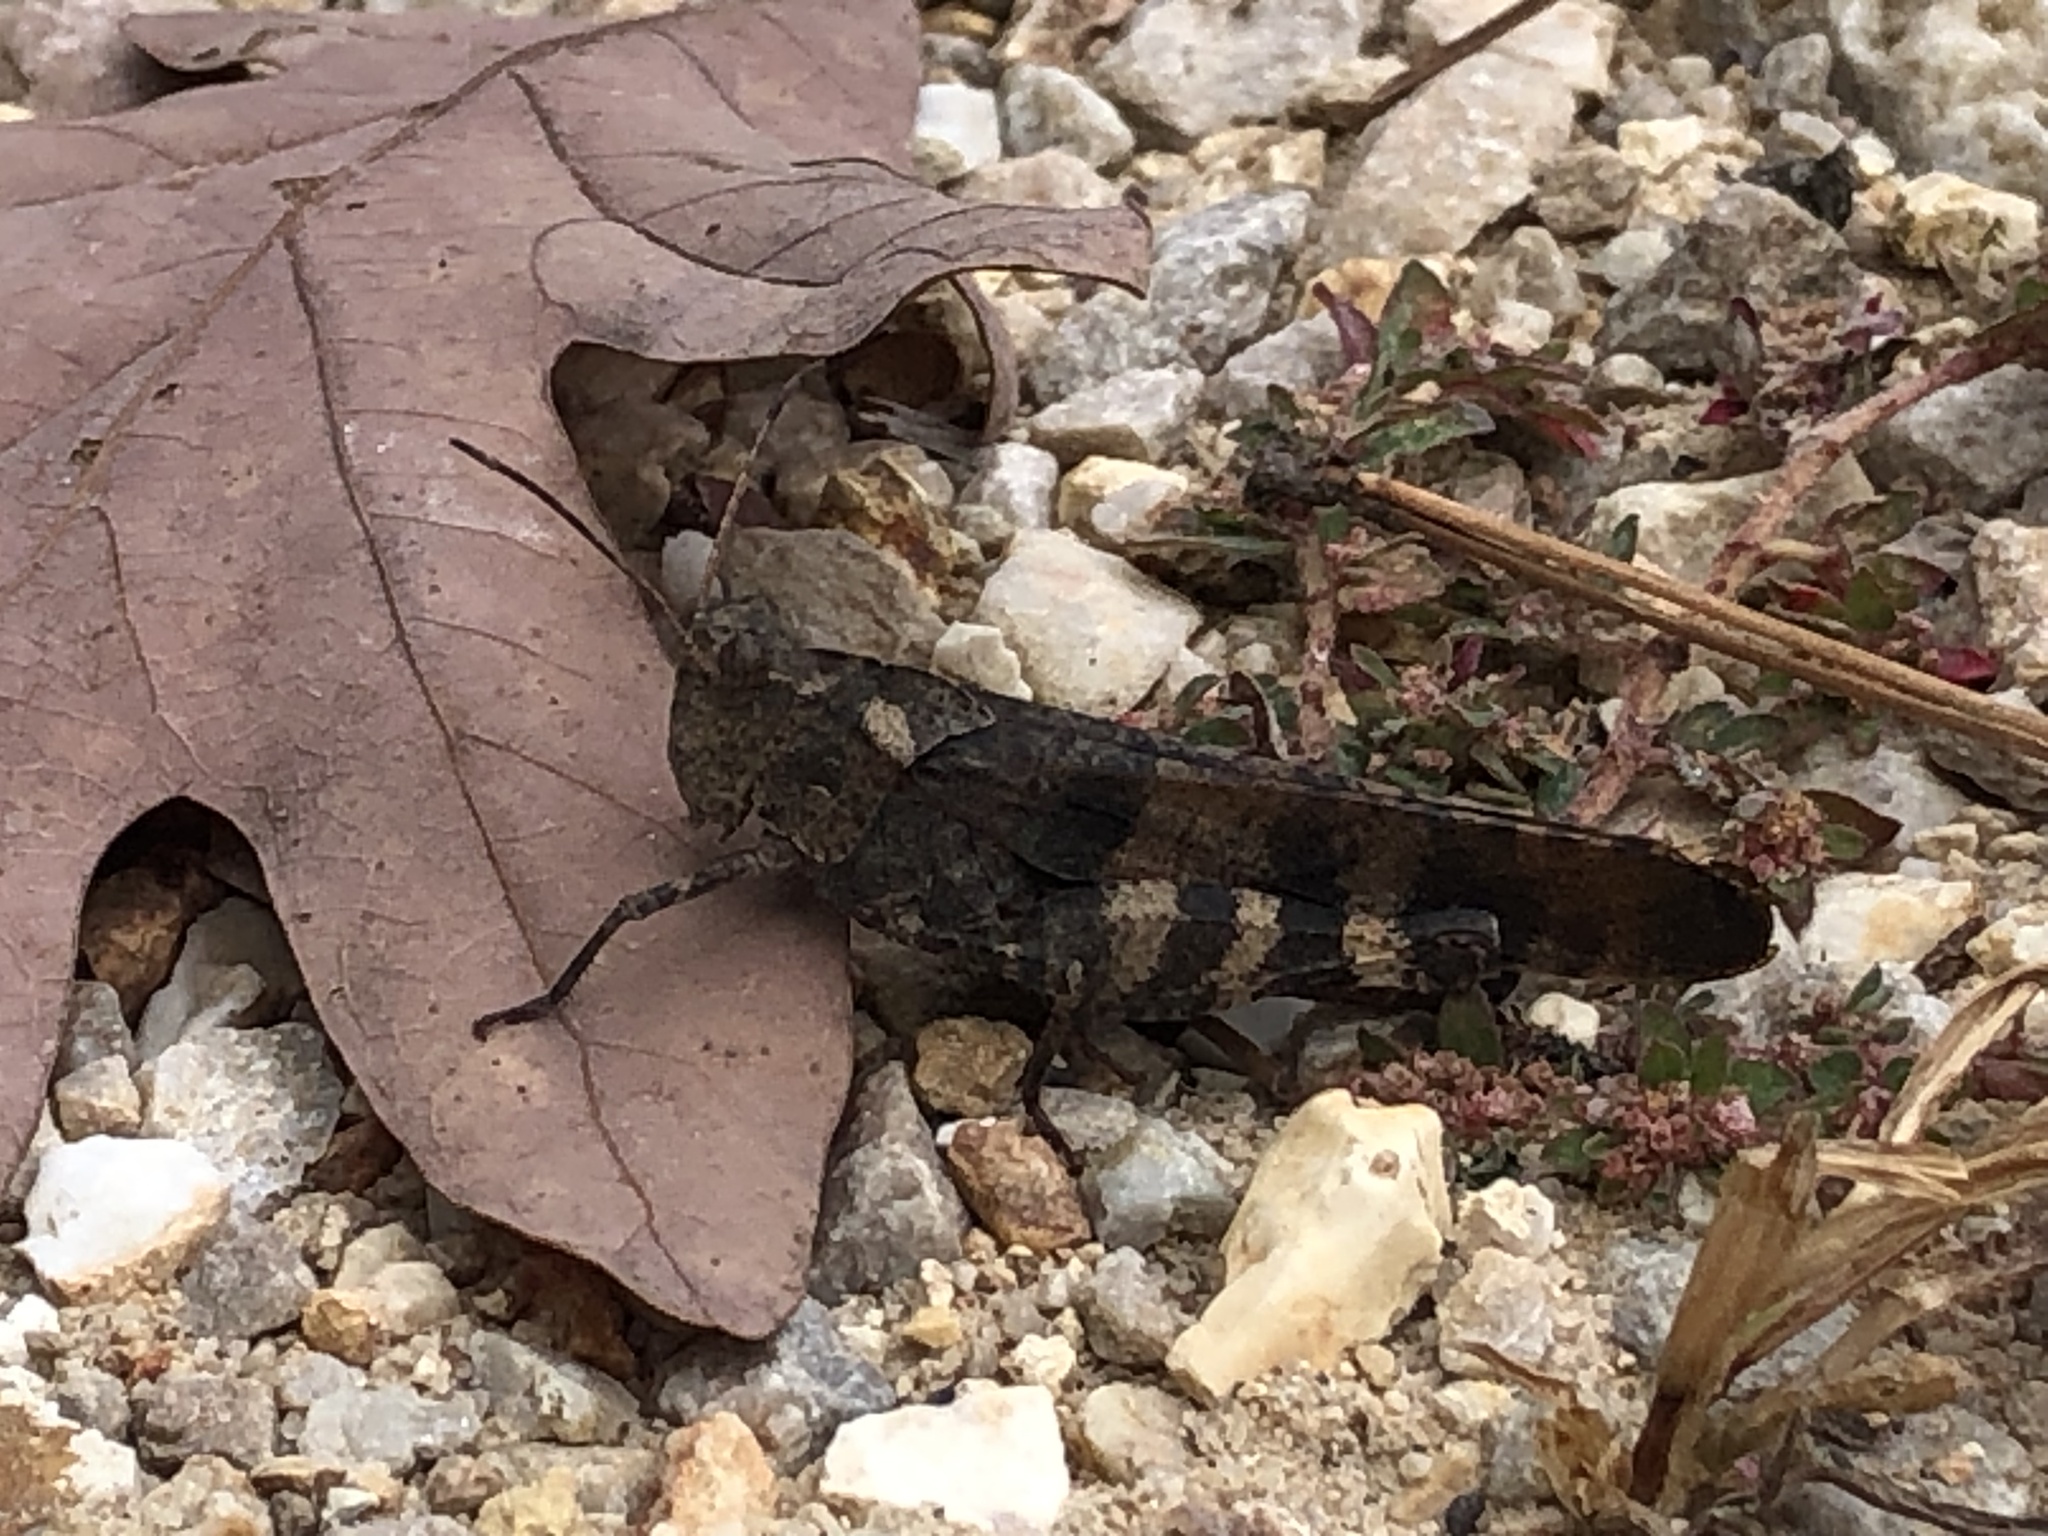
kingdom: Animalia
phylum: Arthropoda
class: Insecta
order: Orthoptera
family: Acrididae
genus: Spharagemon
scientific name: Spharagemon bolli
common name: Boll's grasshopper
